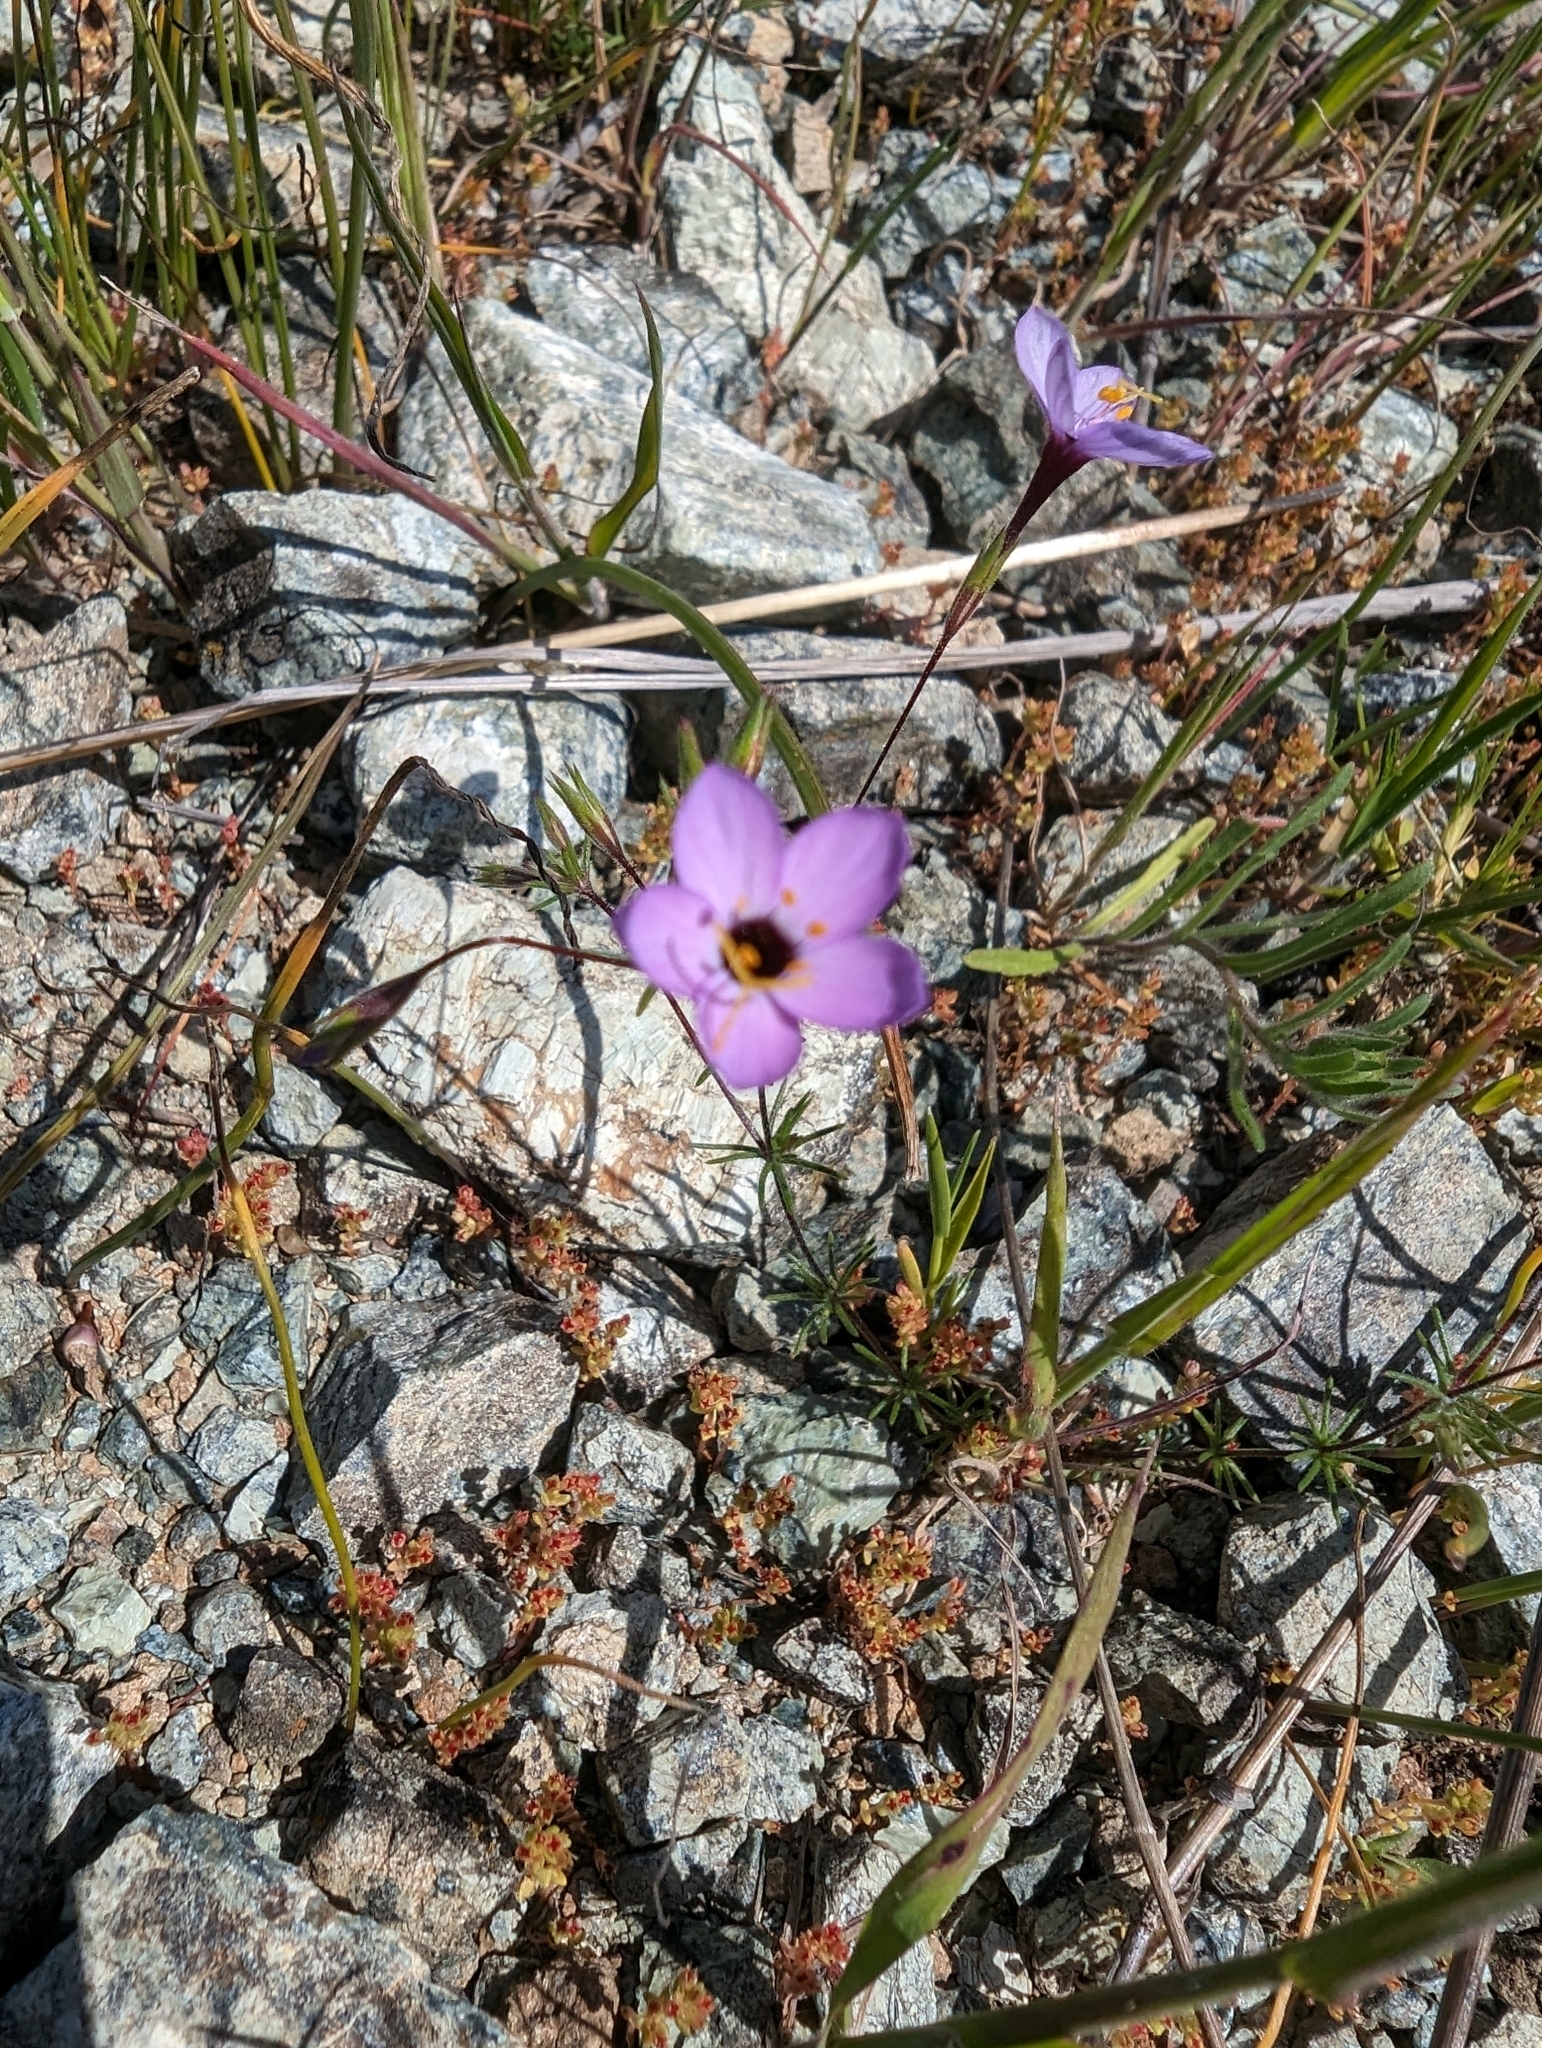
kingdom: Plantae
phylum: Tracheophyta
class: Magnoliopsida
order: Ericales
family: Polemoniaceae
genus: Leptosiphon
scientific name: Leptosiphon ambiguus
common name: Serpentine linanthus
